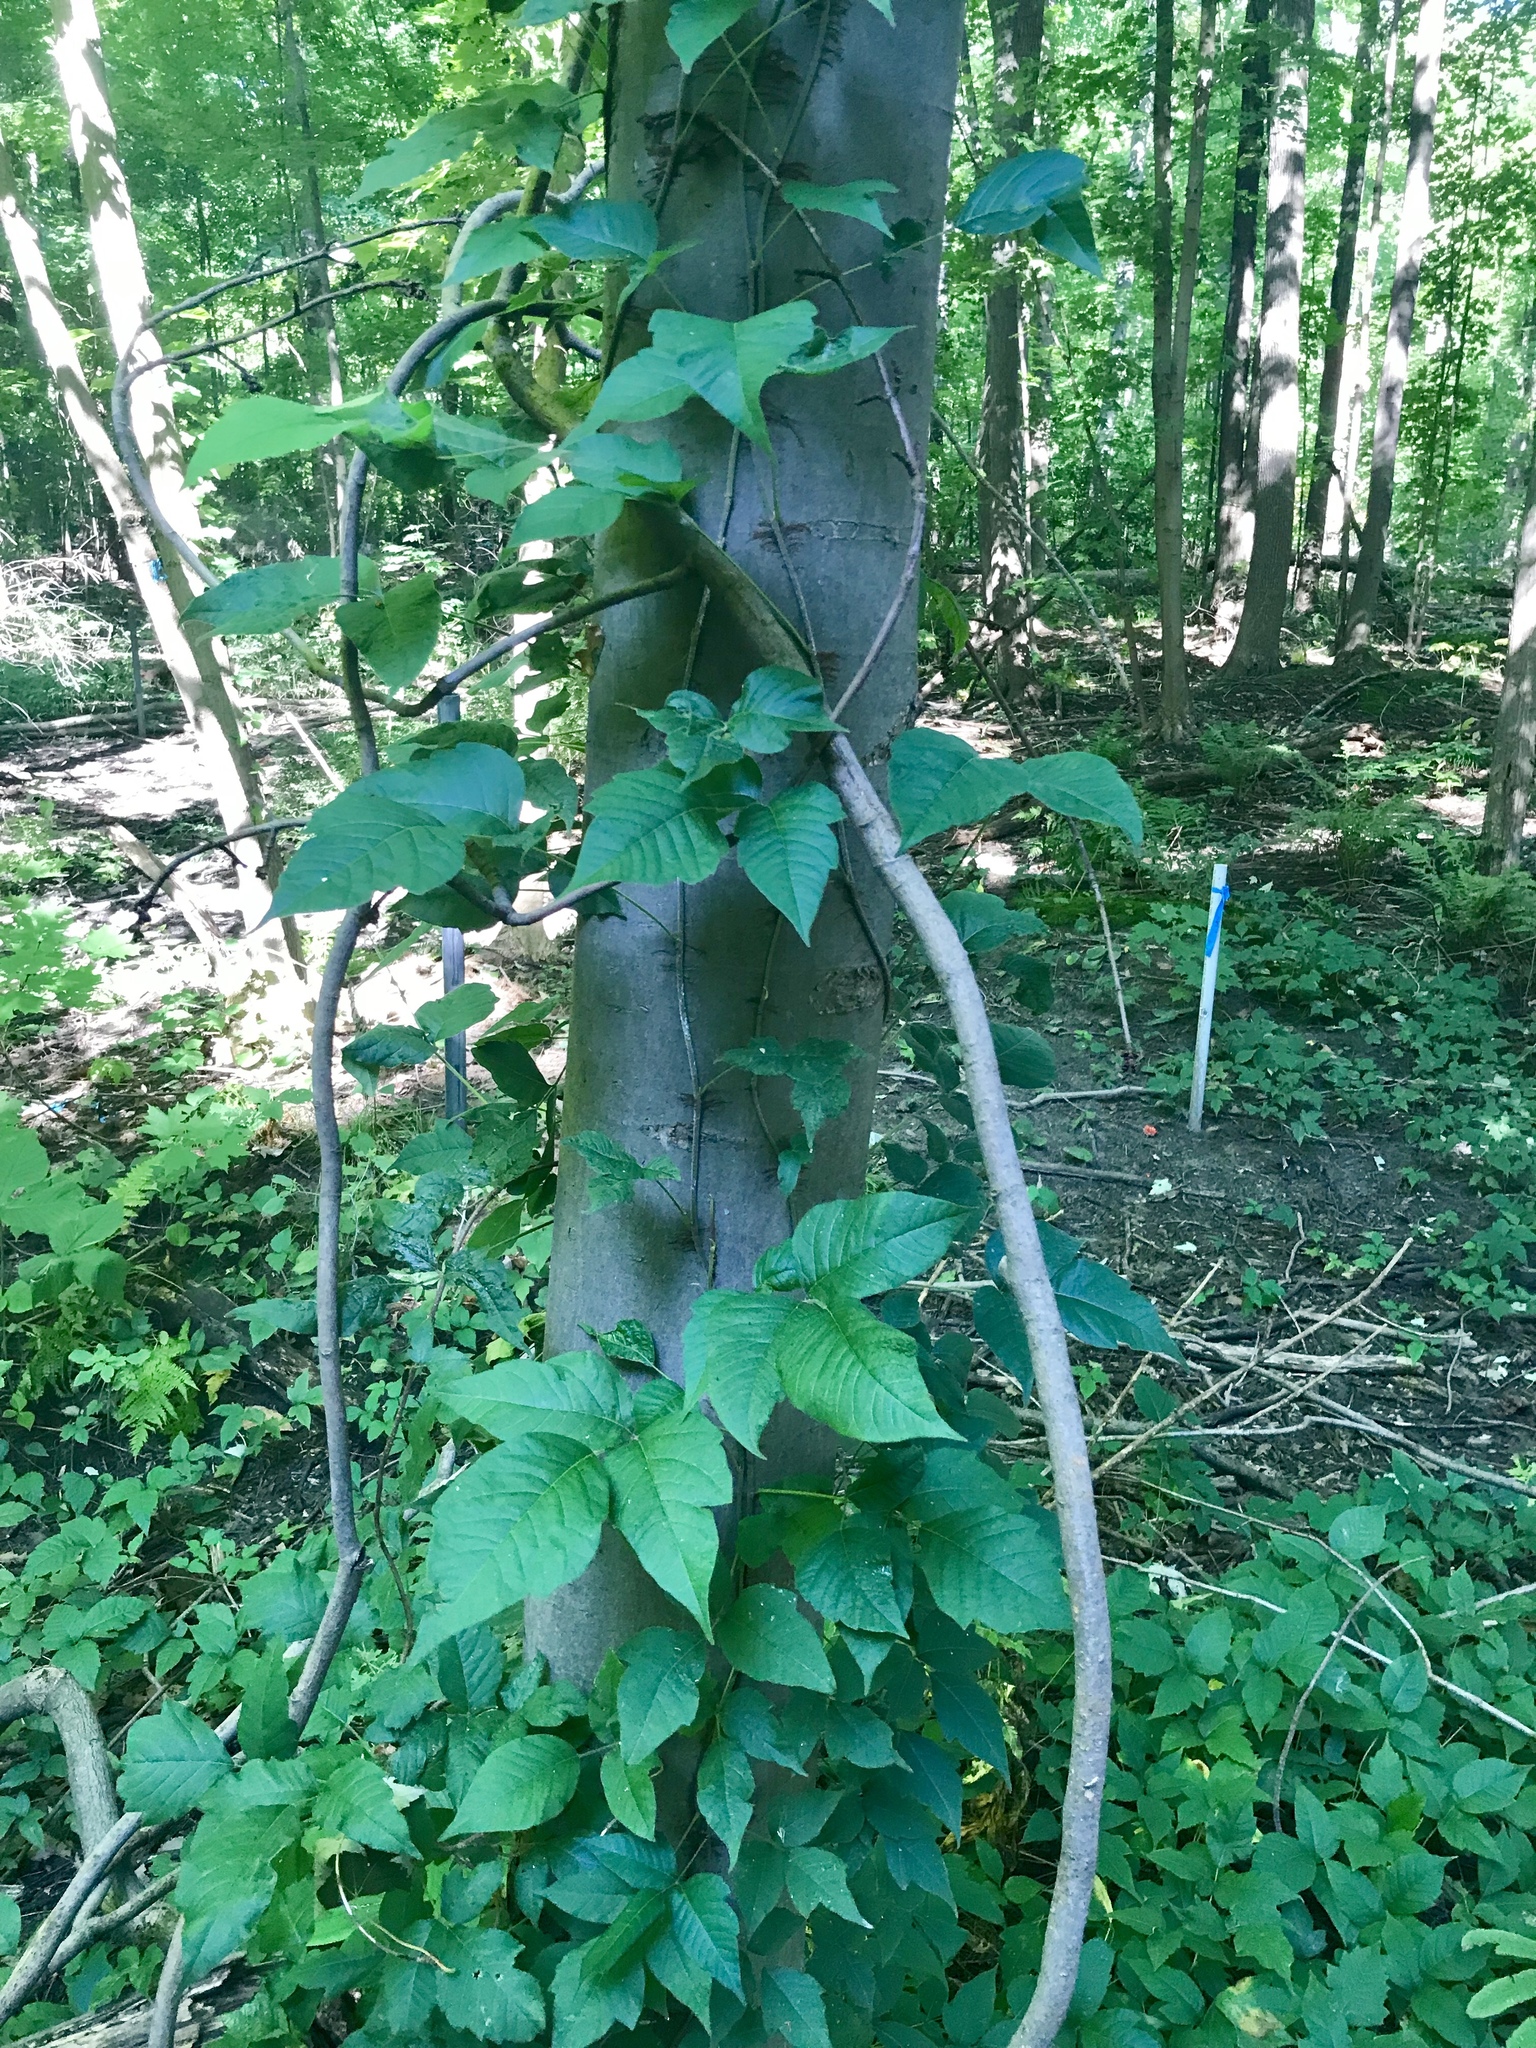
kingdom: Plantae
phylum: Tracheophyta
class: Magnoliopsida
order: Sapindales
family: Anacardiaceae
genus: Toxicodendron
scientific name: Toxicodendron radicans
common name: Poison ivy
